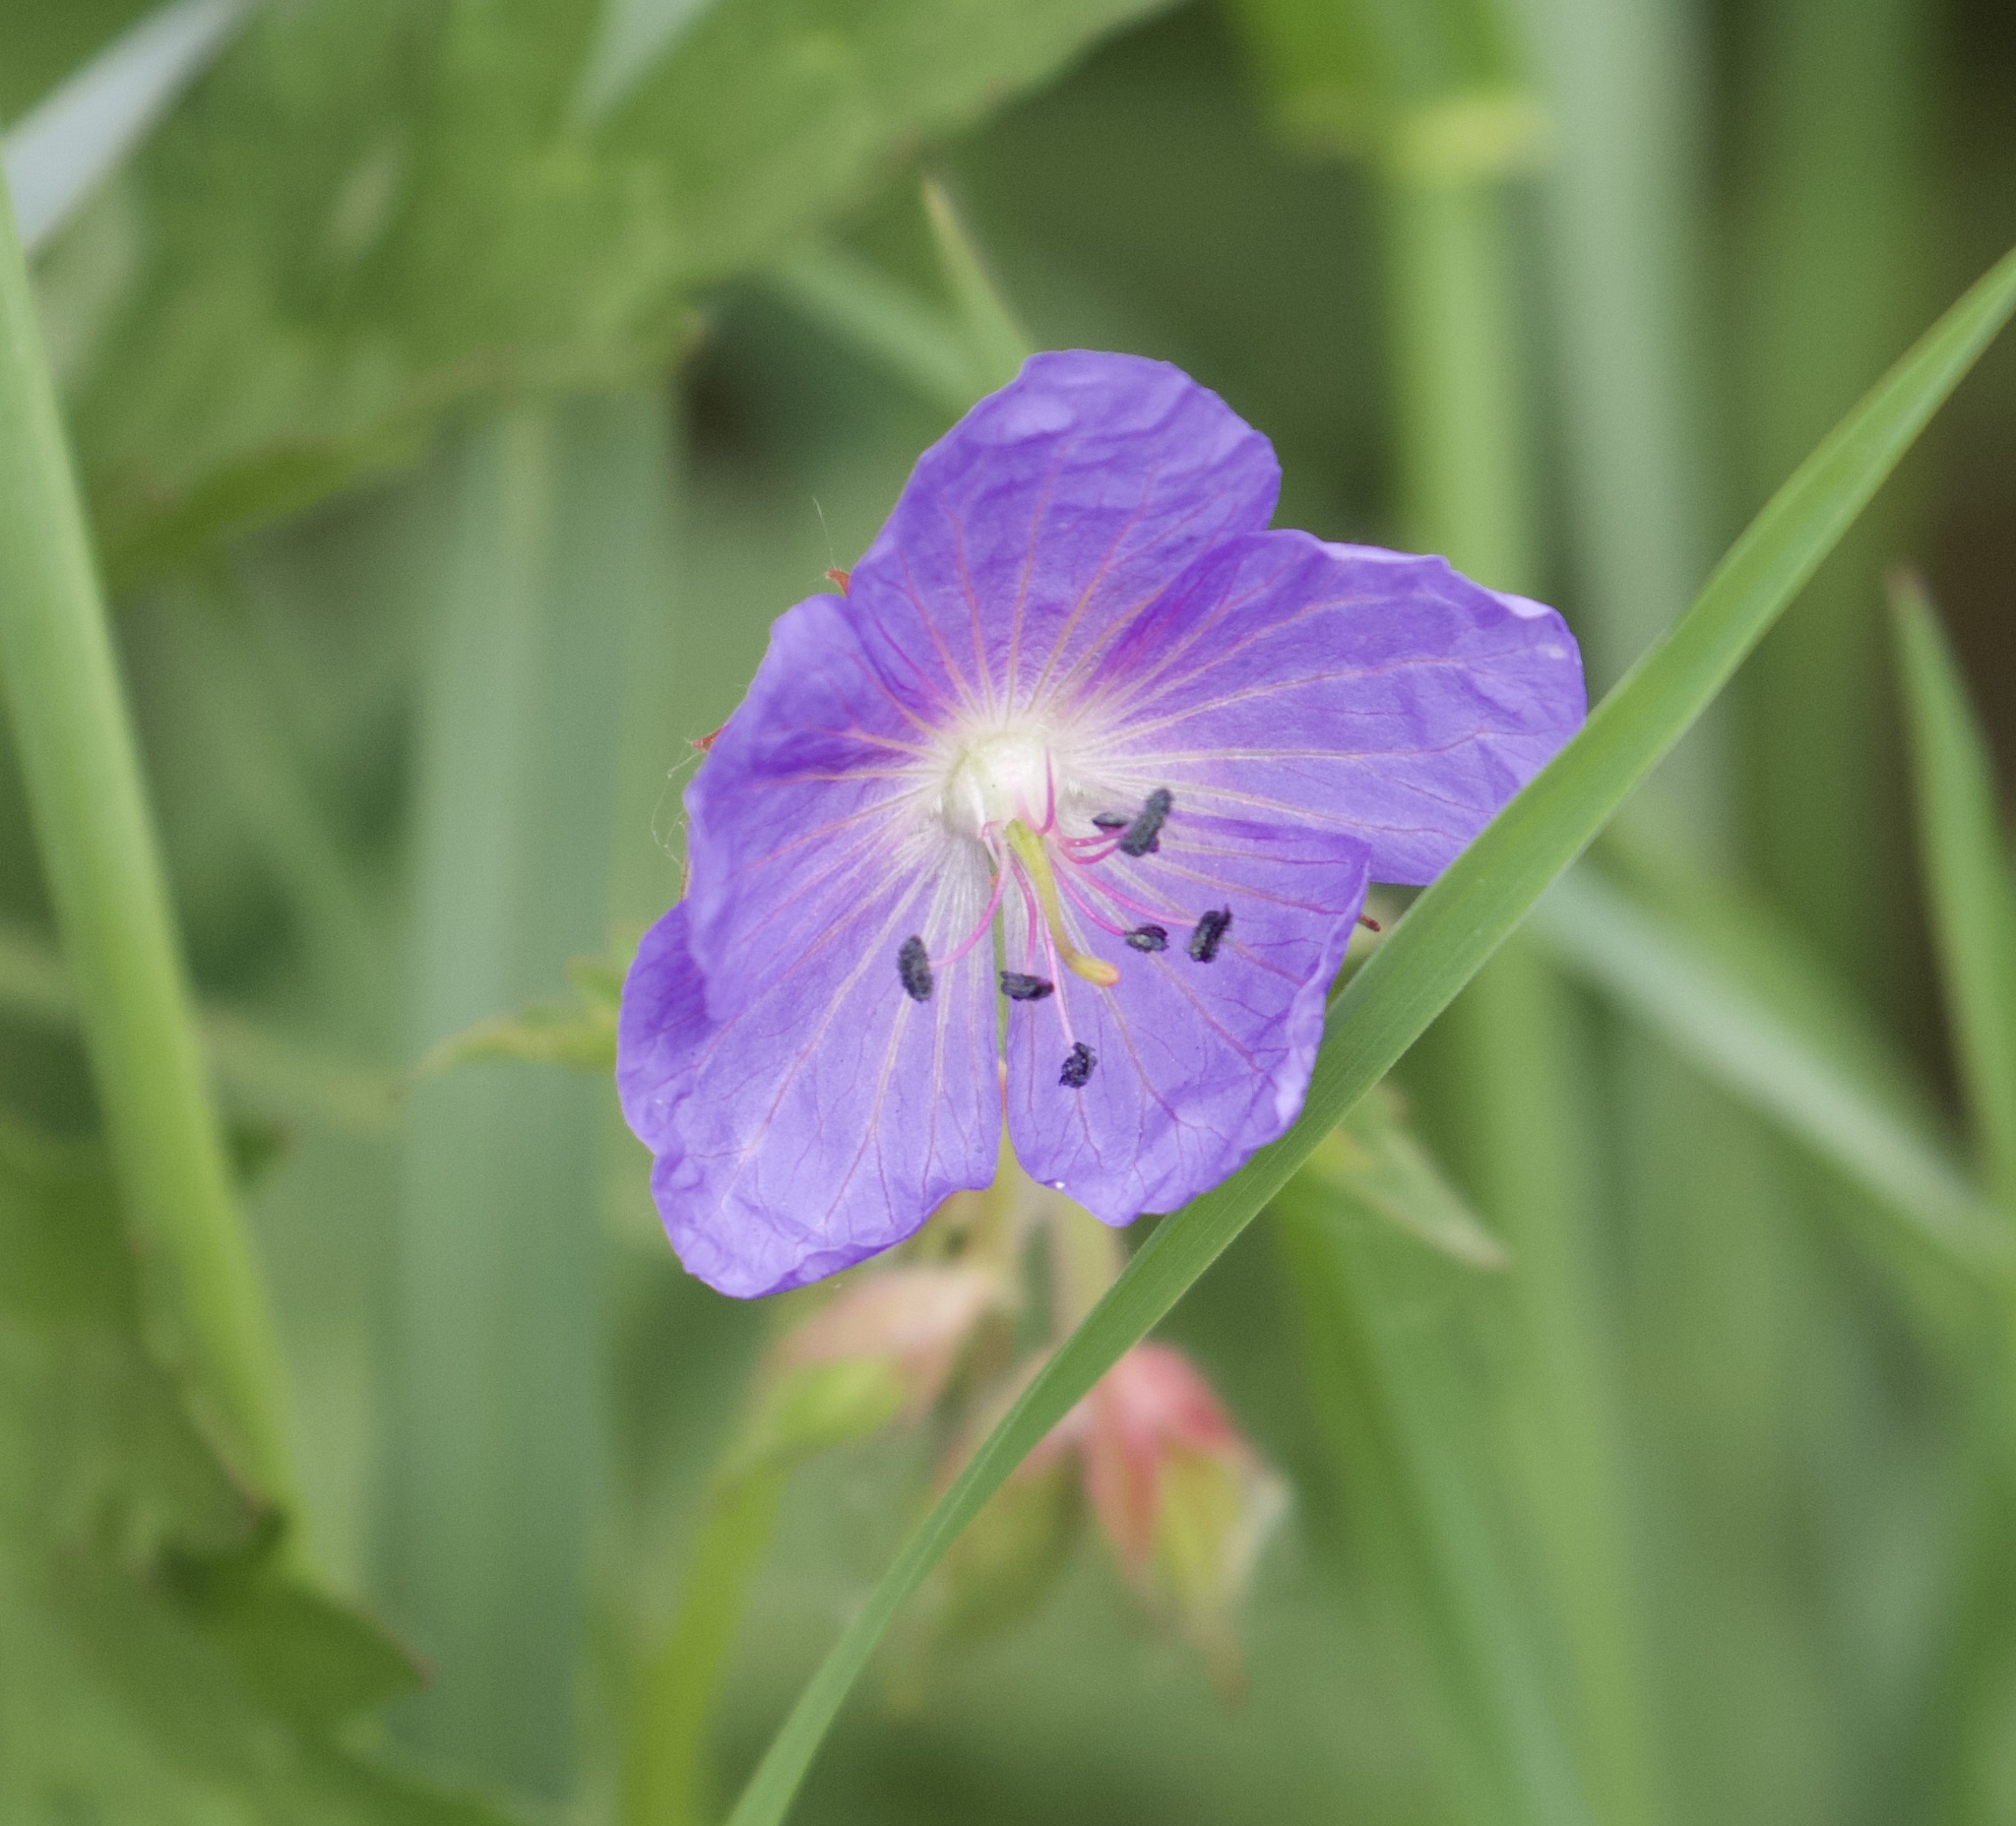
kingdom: Plantae
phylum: Tracheophyta
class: Magnoliopsida
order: Geraniales
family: Geraniaceae
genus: Geranium
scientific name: Geranium pratense
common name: Meadow crane's-bill
